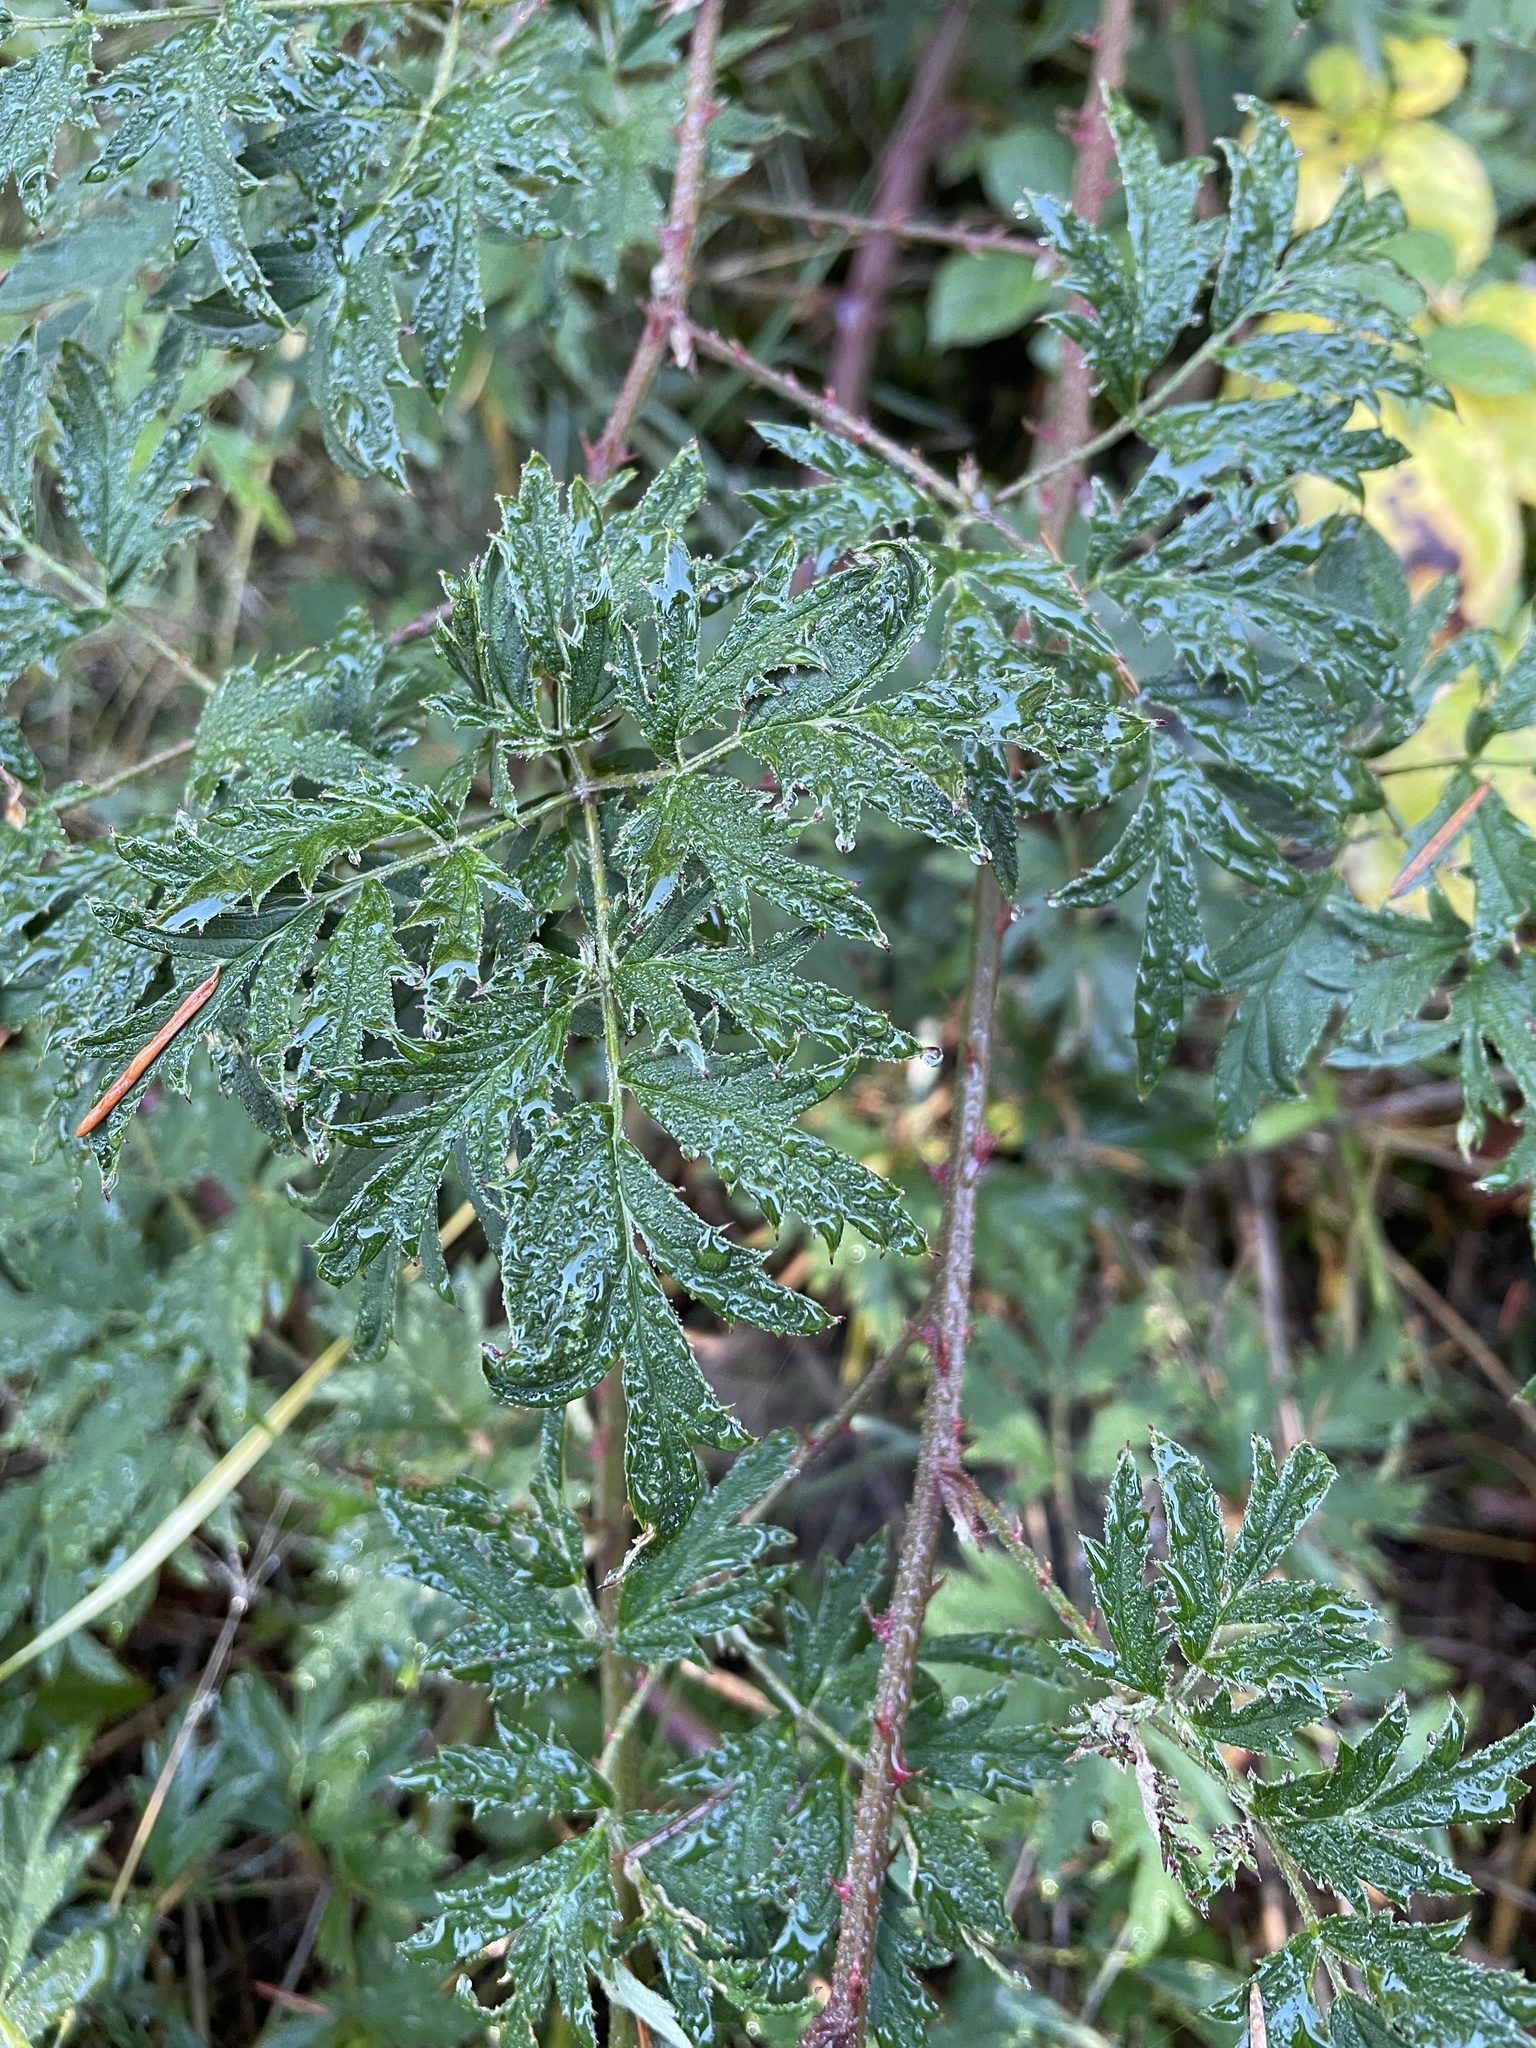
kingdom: Plantae
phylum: Tracheophyta
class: Magnoliopsida
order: Rosales
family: Rosaceae
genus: Rubus
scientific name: Rubus laciniatus
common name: Evergreen blackberry
